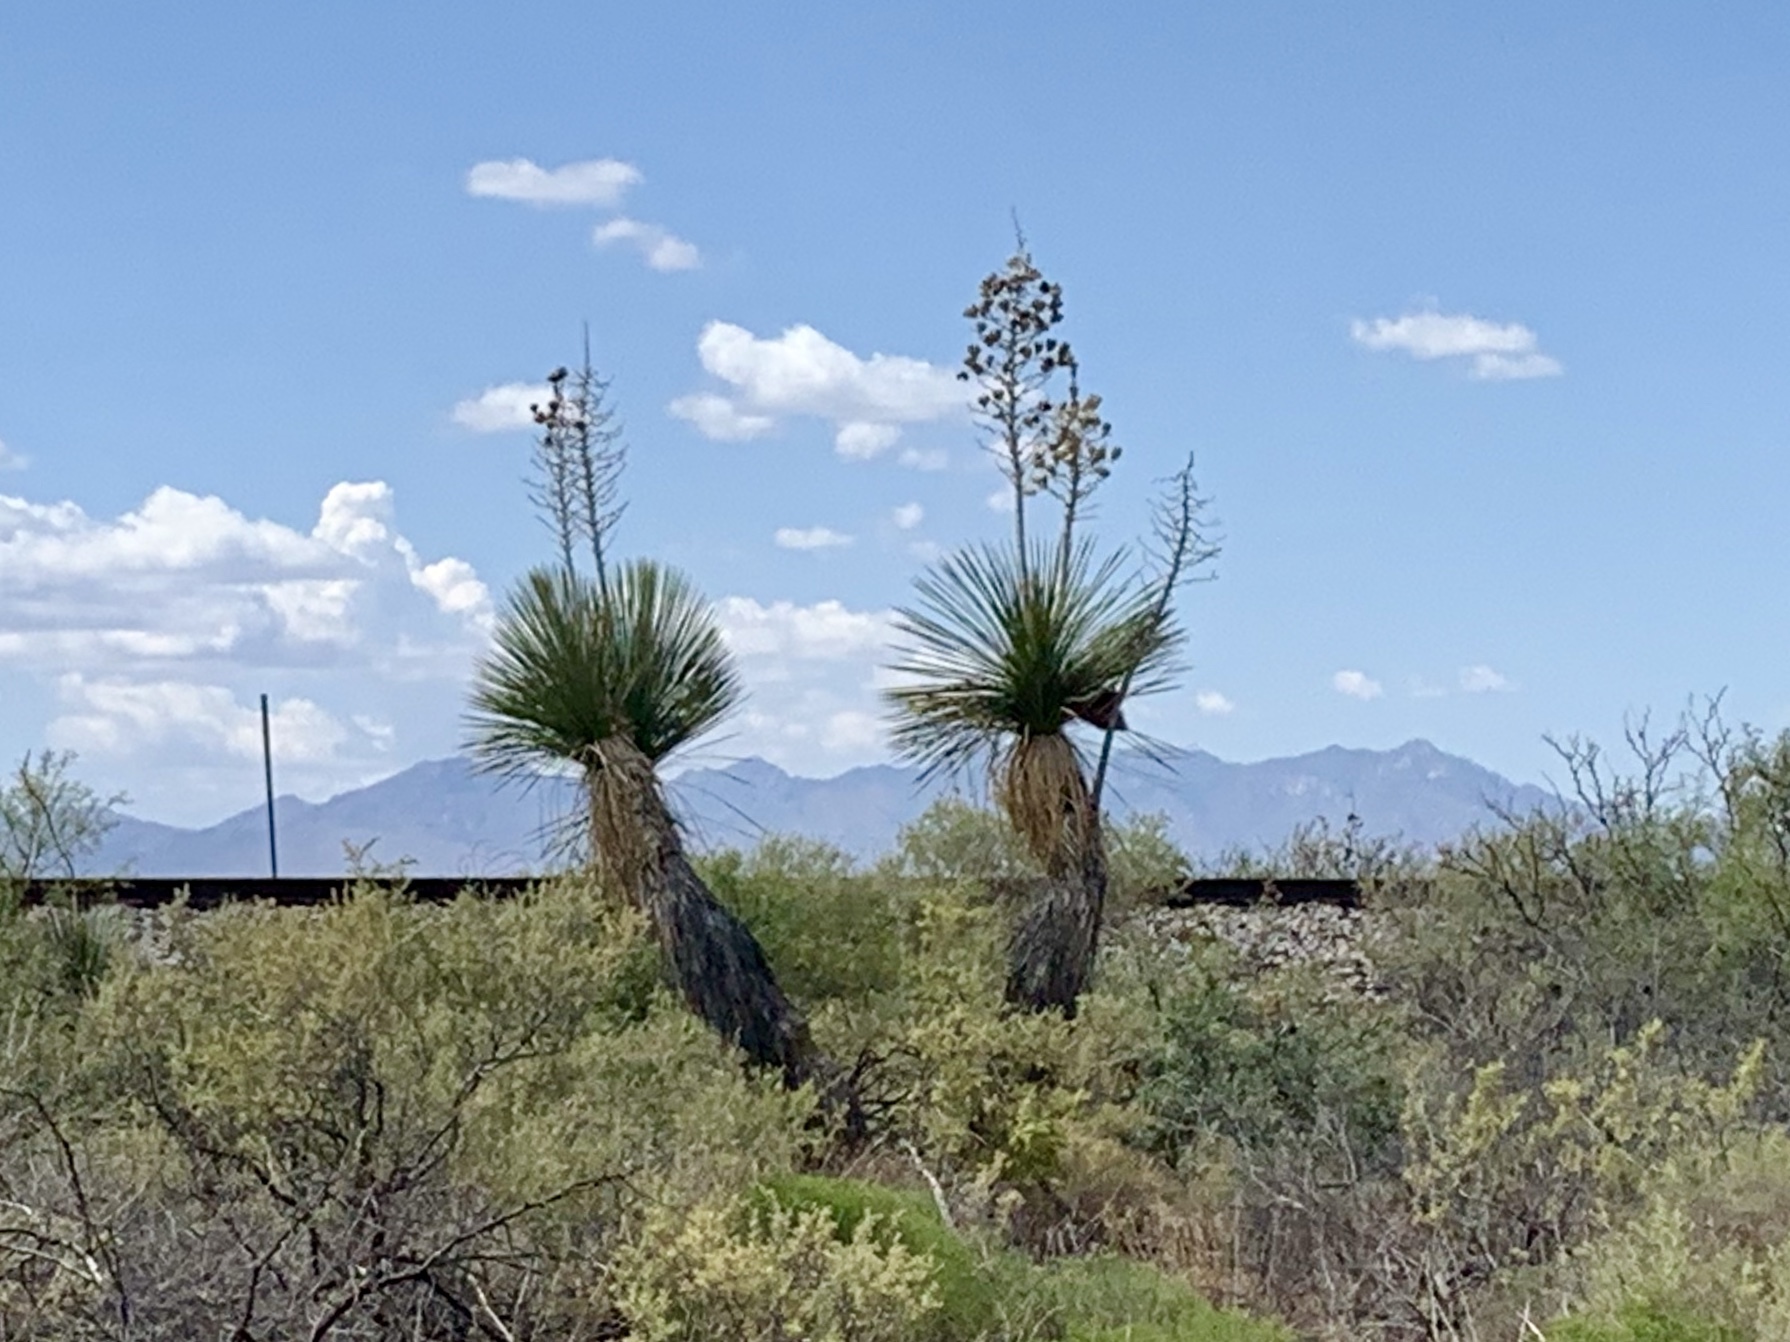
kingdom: Plantae
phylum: Tracheophyta
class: Liliopsida
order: Asparagales
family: Asparagaceae
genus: Yucca
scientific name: Yucca elata
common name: Palmella
